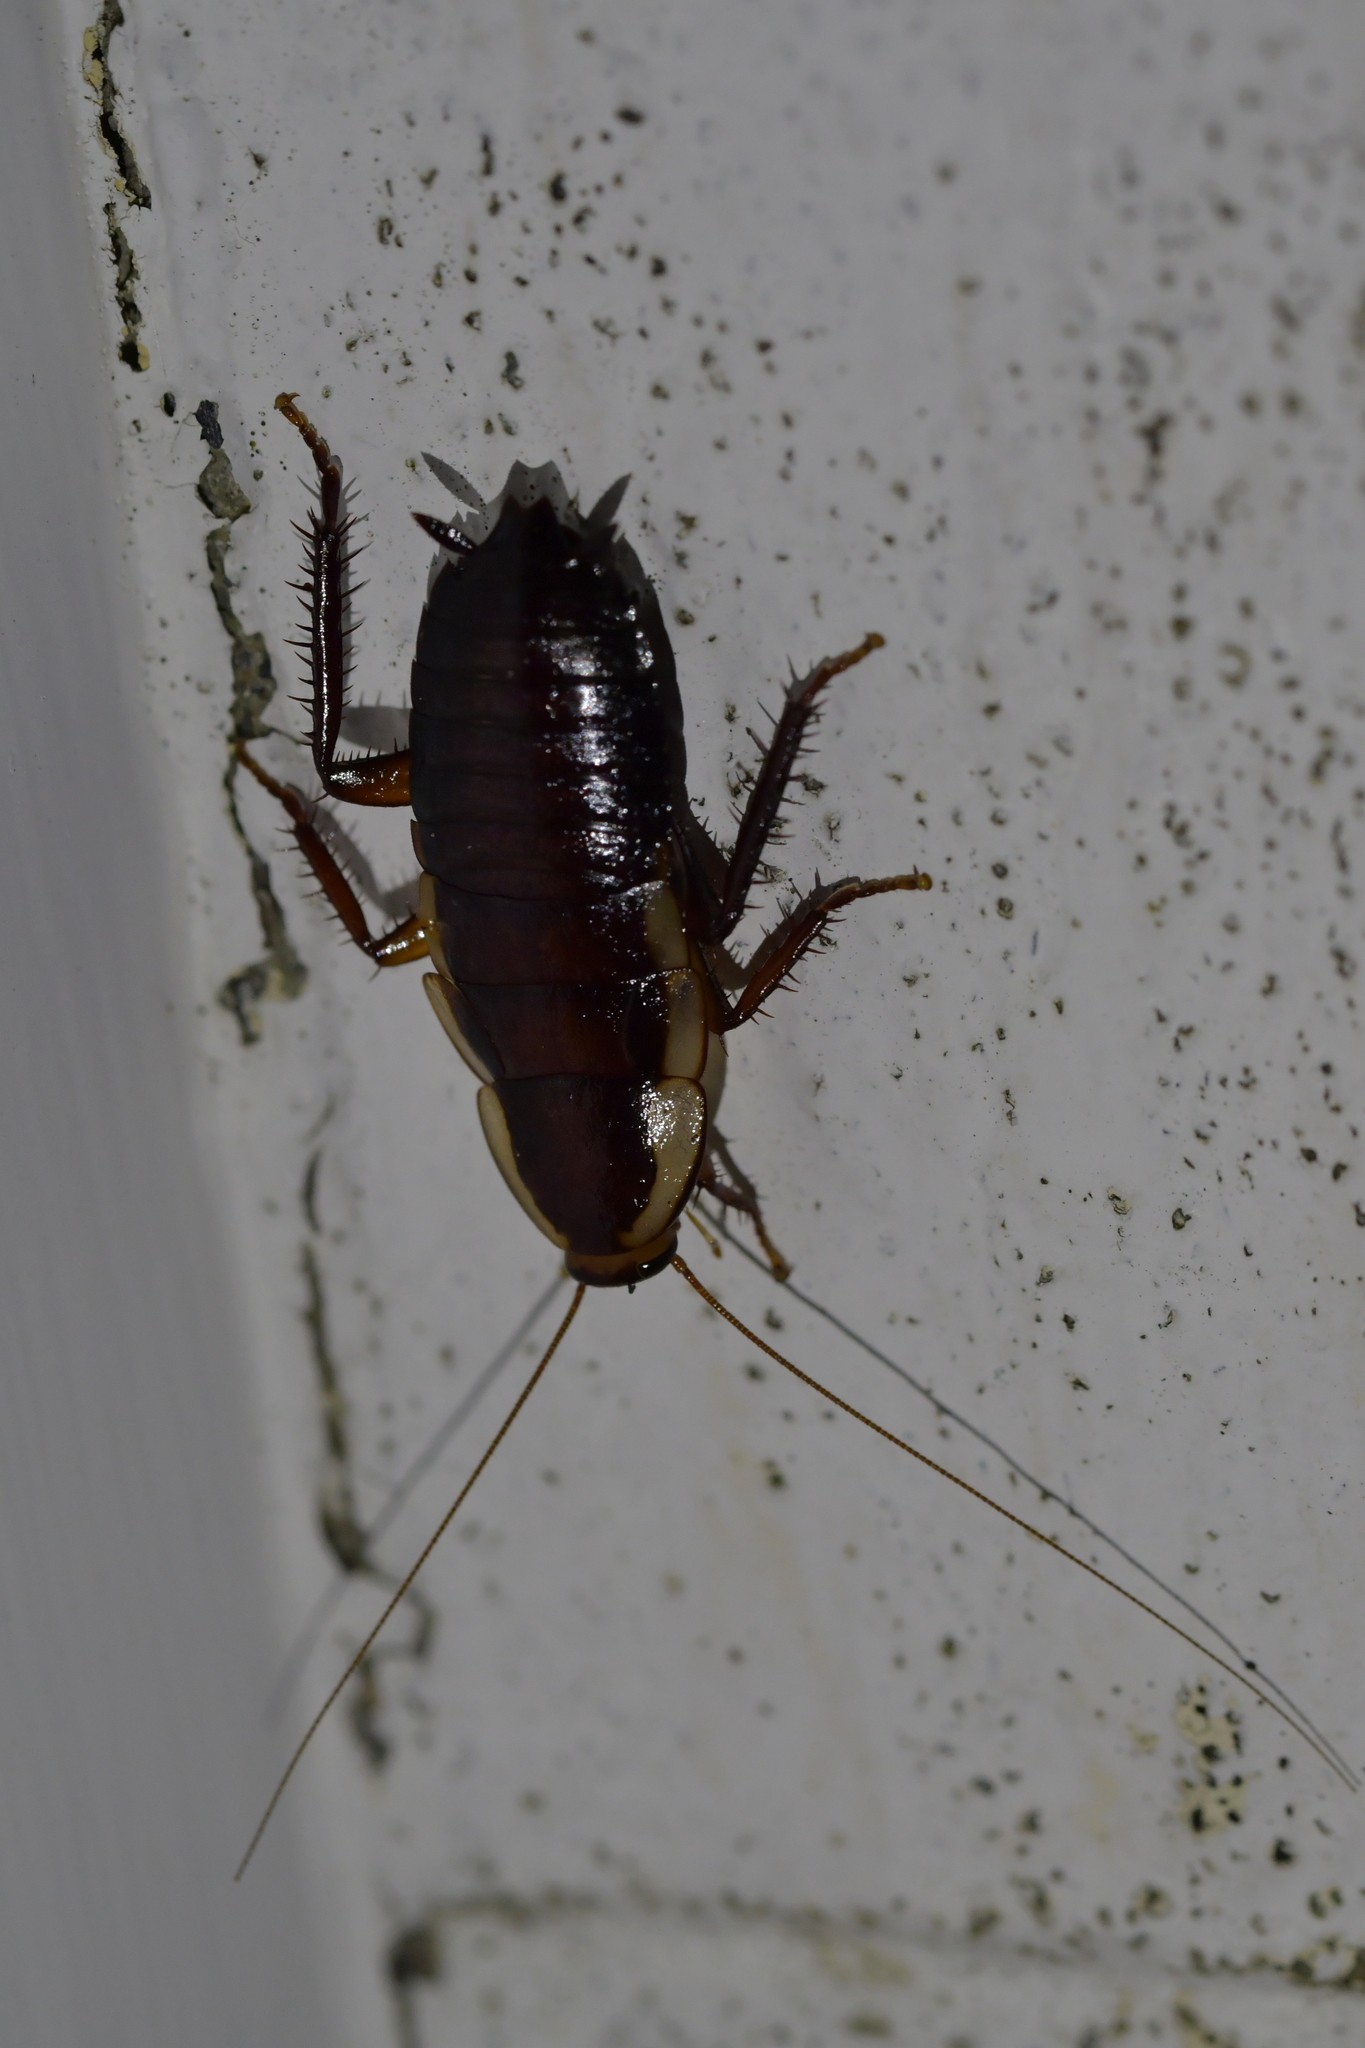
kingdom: Animalia
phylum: Arthropoda
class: Insecta
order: Blattodea
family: Blattidae
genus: Drymaplaneta
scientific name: Drymaplaneta semivitta
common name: Gisborne cockroach
